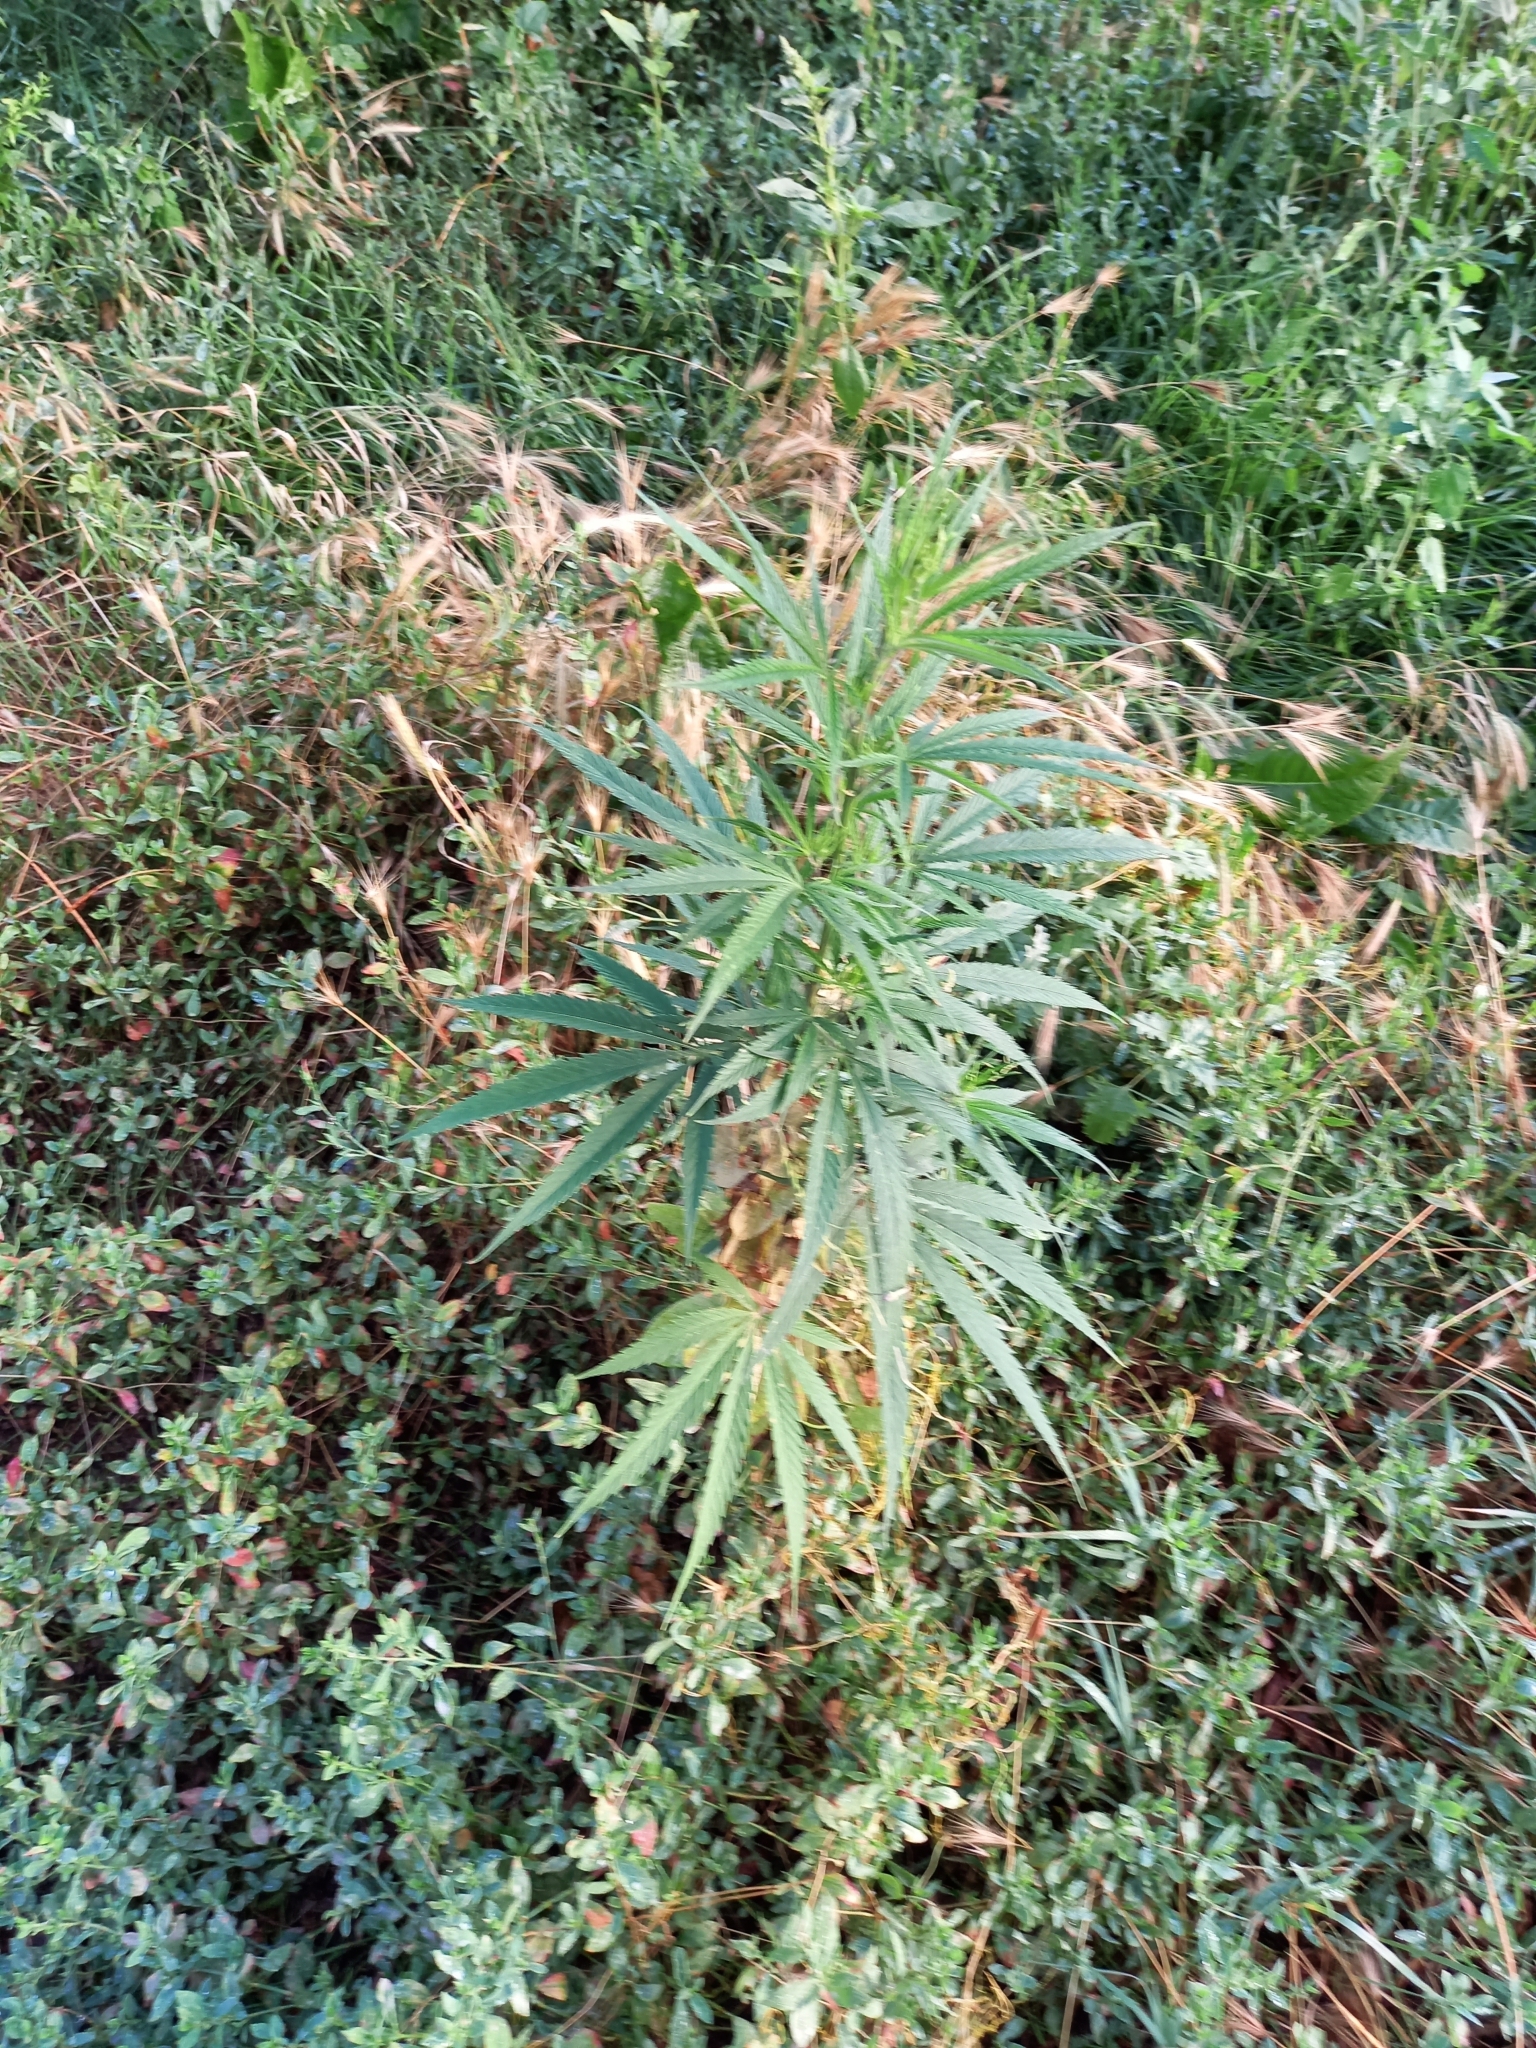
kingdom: Plantae
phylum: Tracheophyta
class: Magnoliopsida
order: Rosales
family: Cannabaceae
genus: Cannabis
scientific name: Cannabis sativa
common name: Hemp
